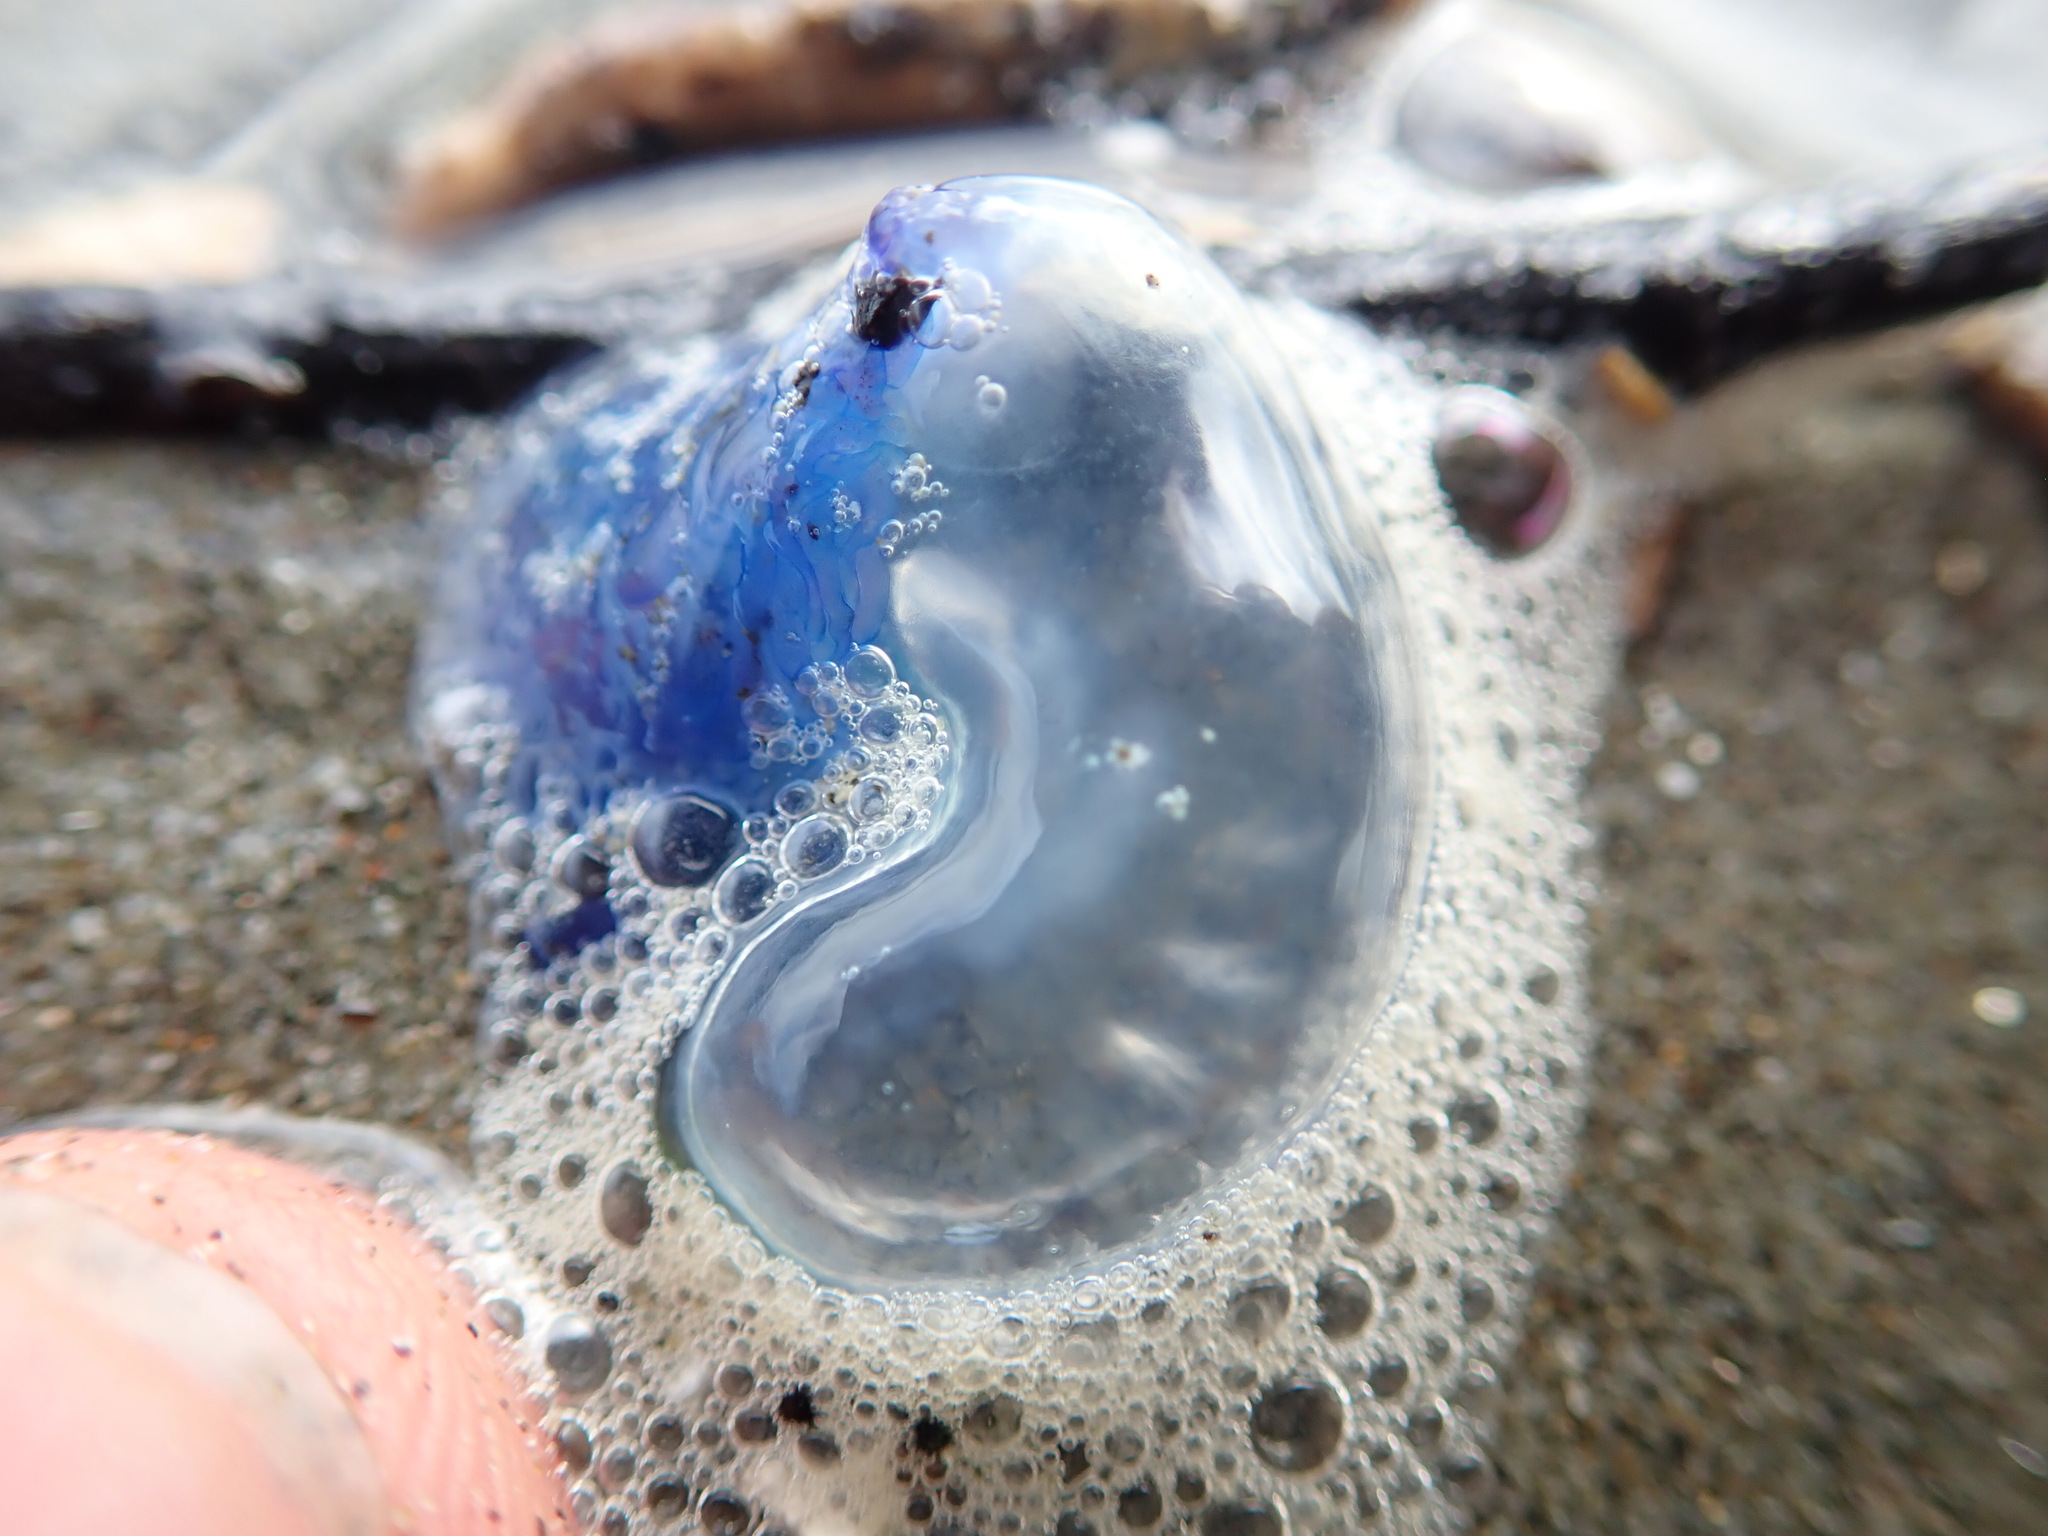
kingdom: Animalia
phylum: Cnidaria
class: Hydrozoa
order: Siphonophorae
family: Physaliidae
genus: Physalia
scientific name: Physalia physalis
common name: Portuguese man-of-war
